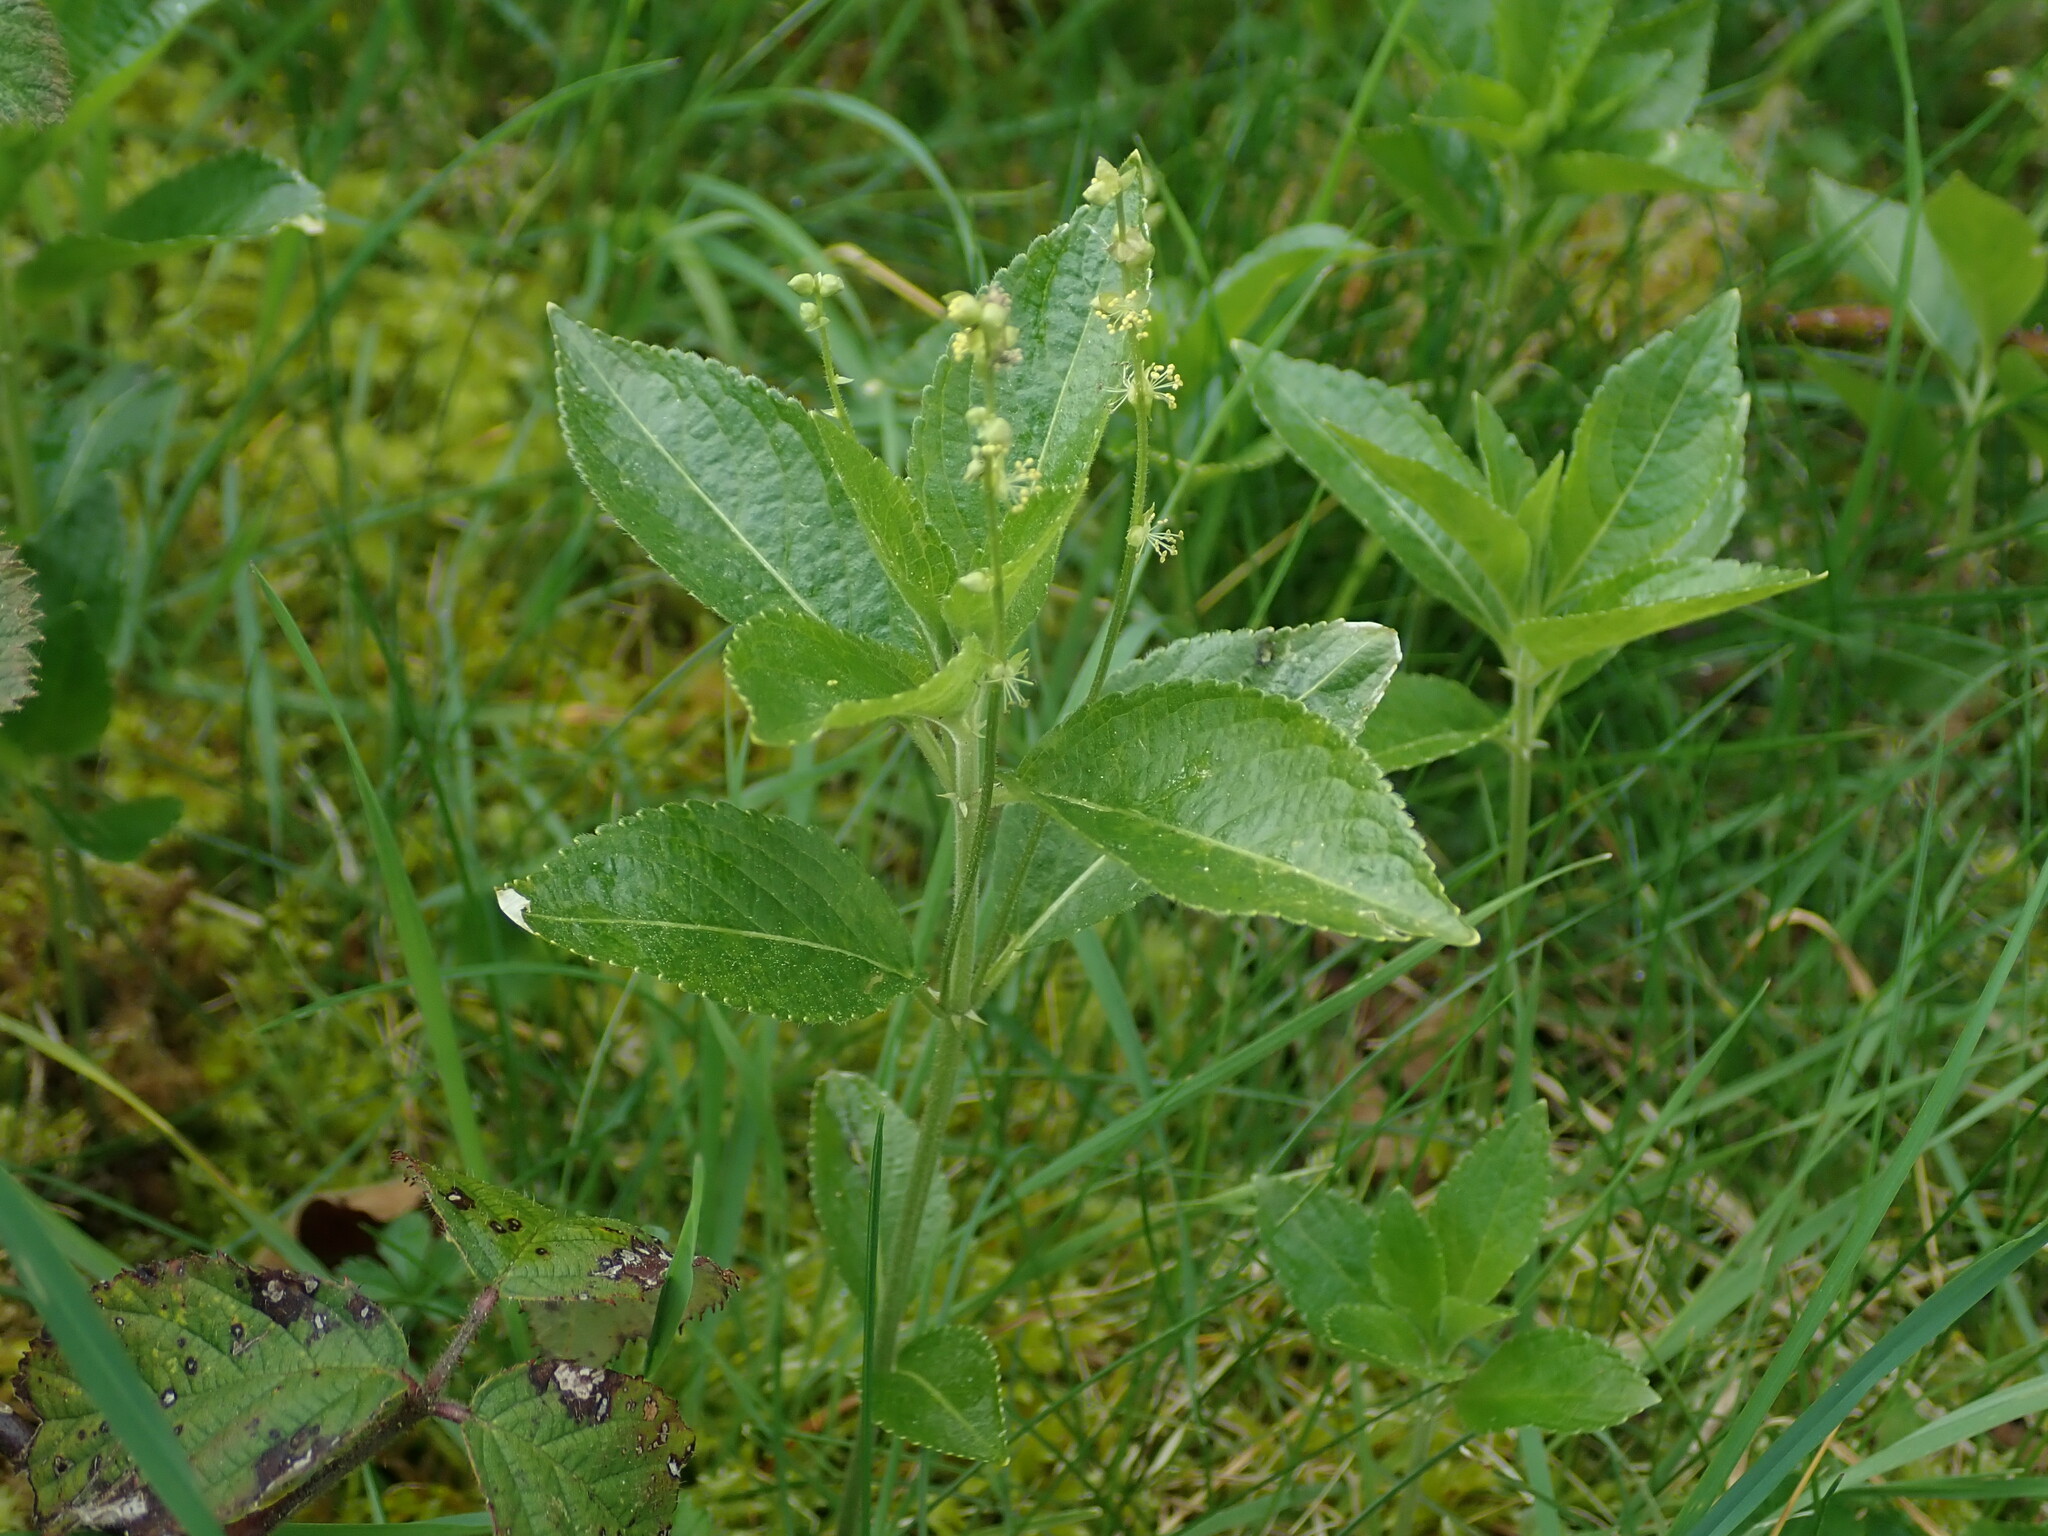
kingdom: Plantae
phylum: Tracheophyta
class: Magnoliopsida
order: Malpighiales
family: Euphorbiaceae
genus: Mercurialis
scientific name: Mercurialis perennis
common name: Dog mercury
